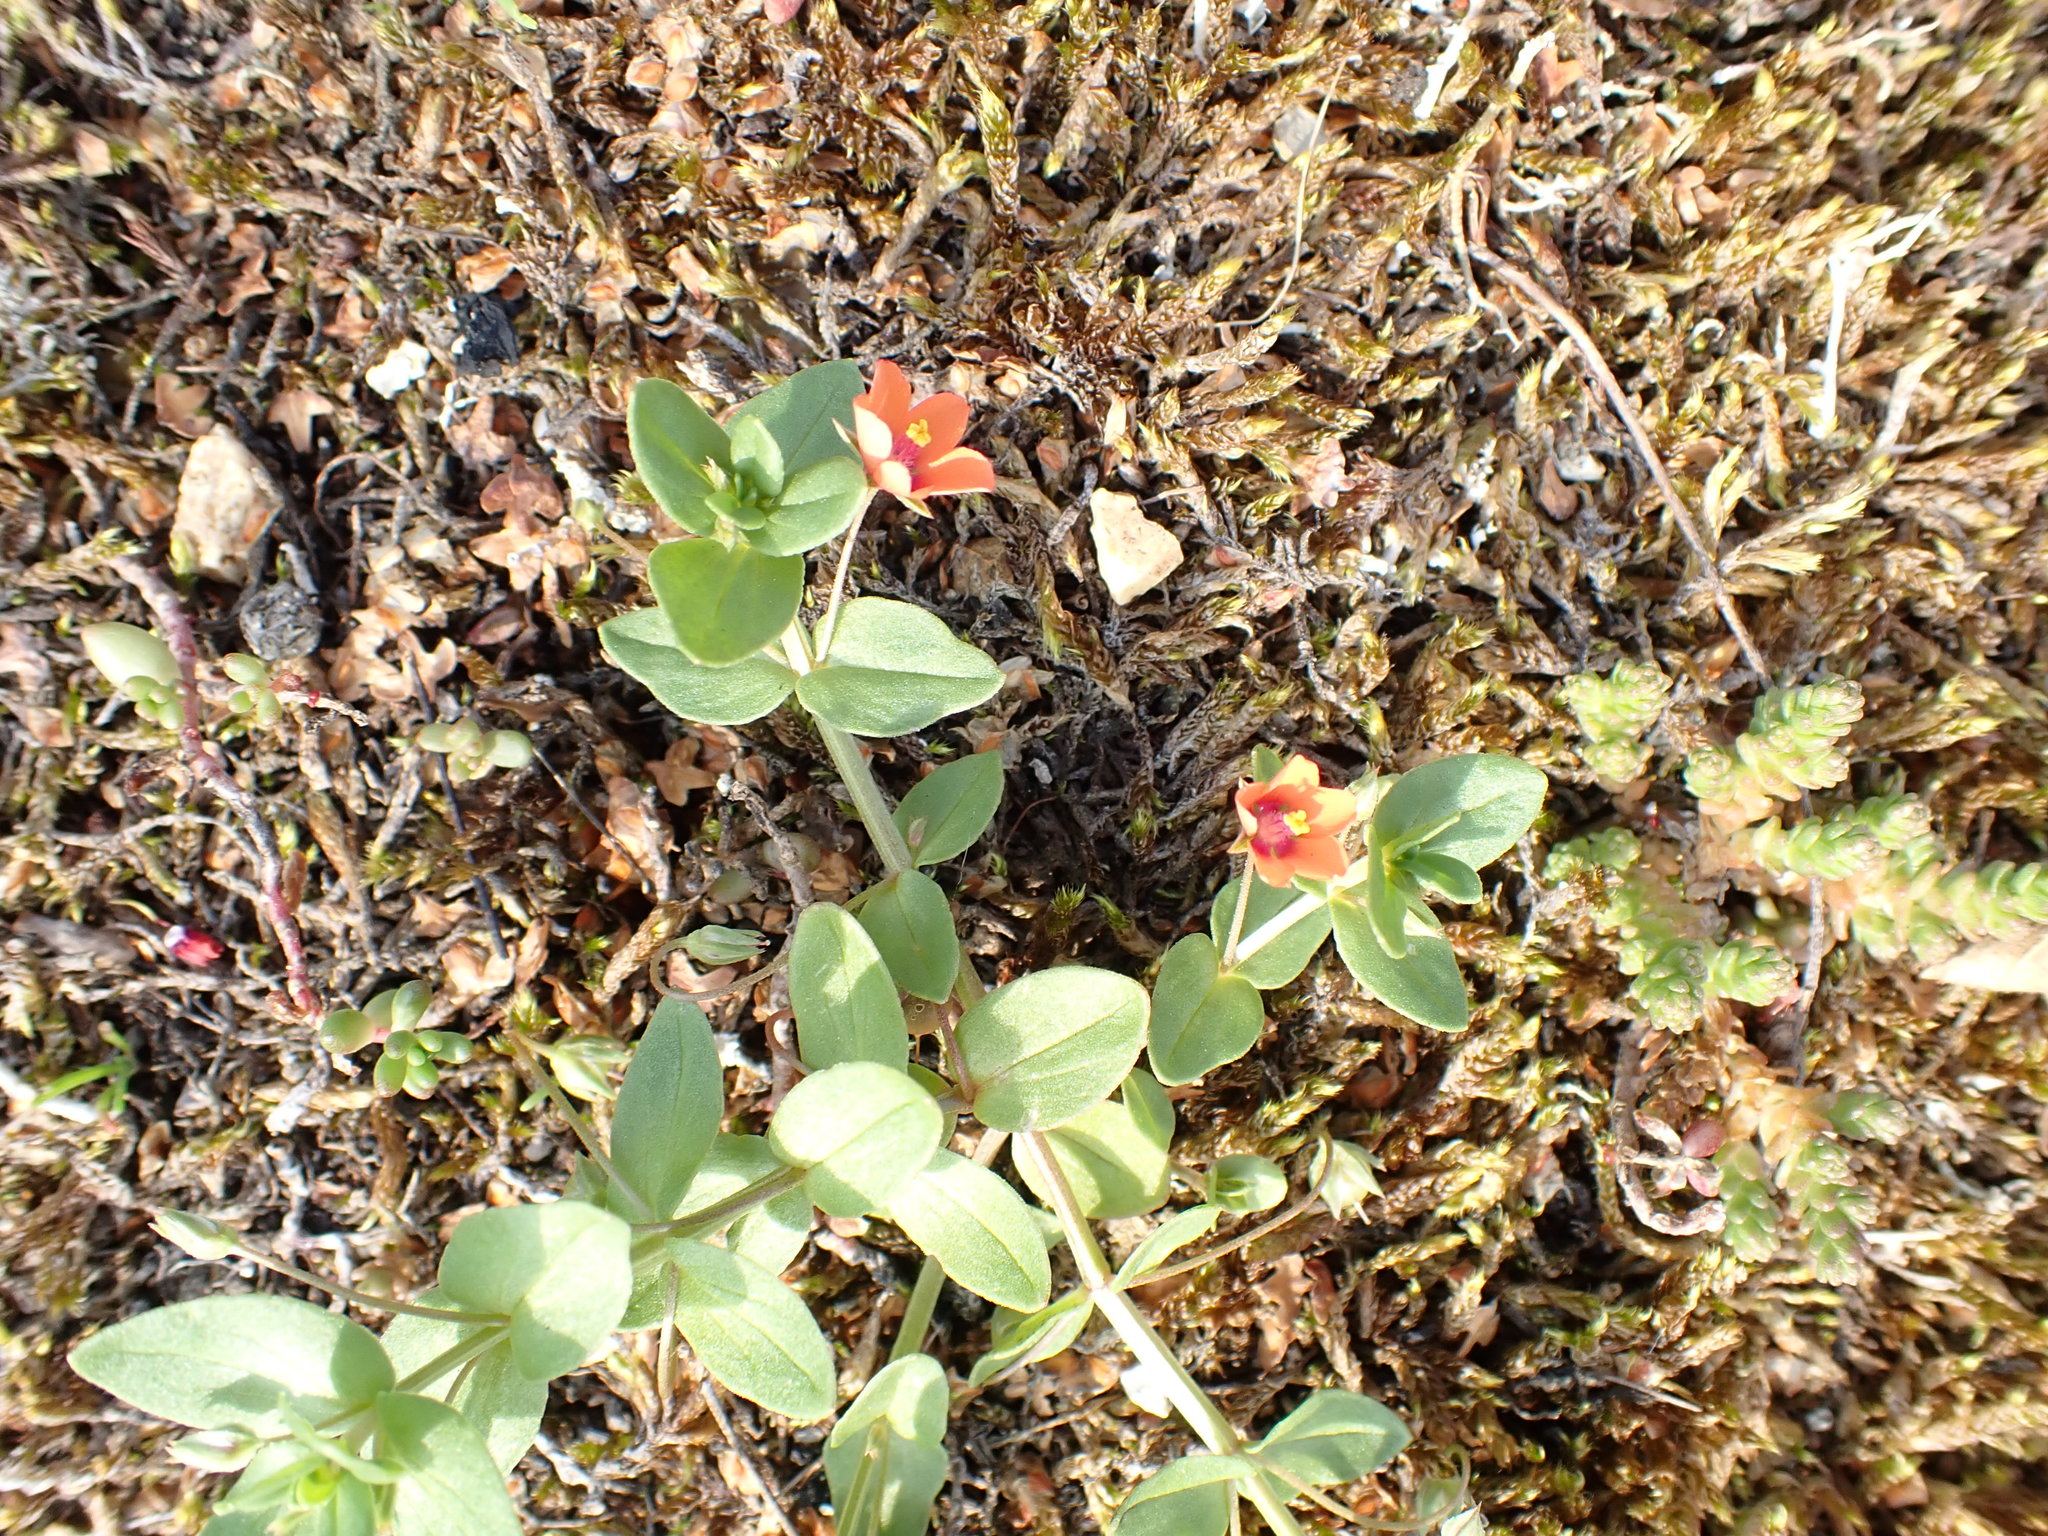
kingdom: Plantae
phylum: Tracheophyta
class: Magnoliopsida
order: Ericales
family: Primulaceae
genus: Lysimachia
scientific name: Lysimachia arvensis
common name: Scarlet pimpernel
